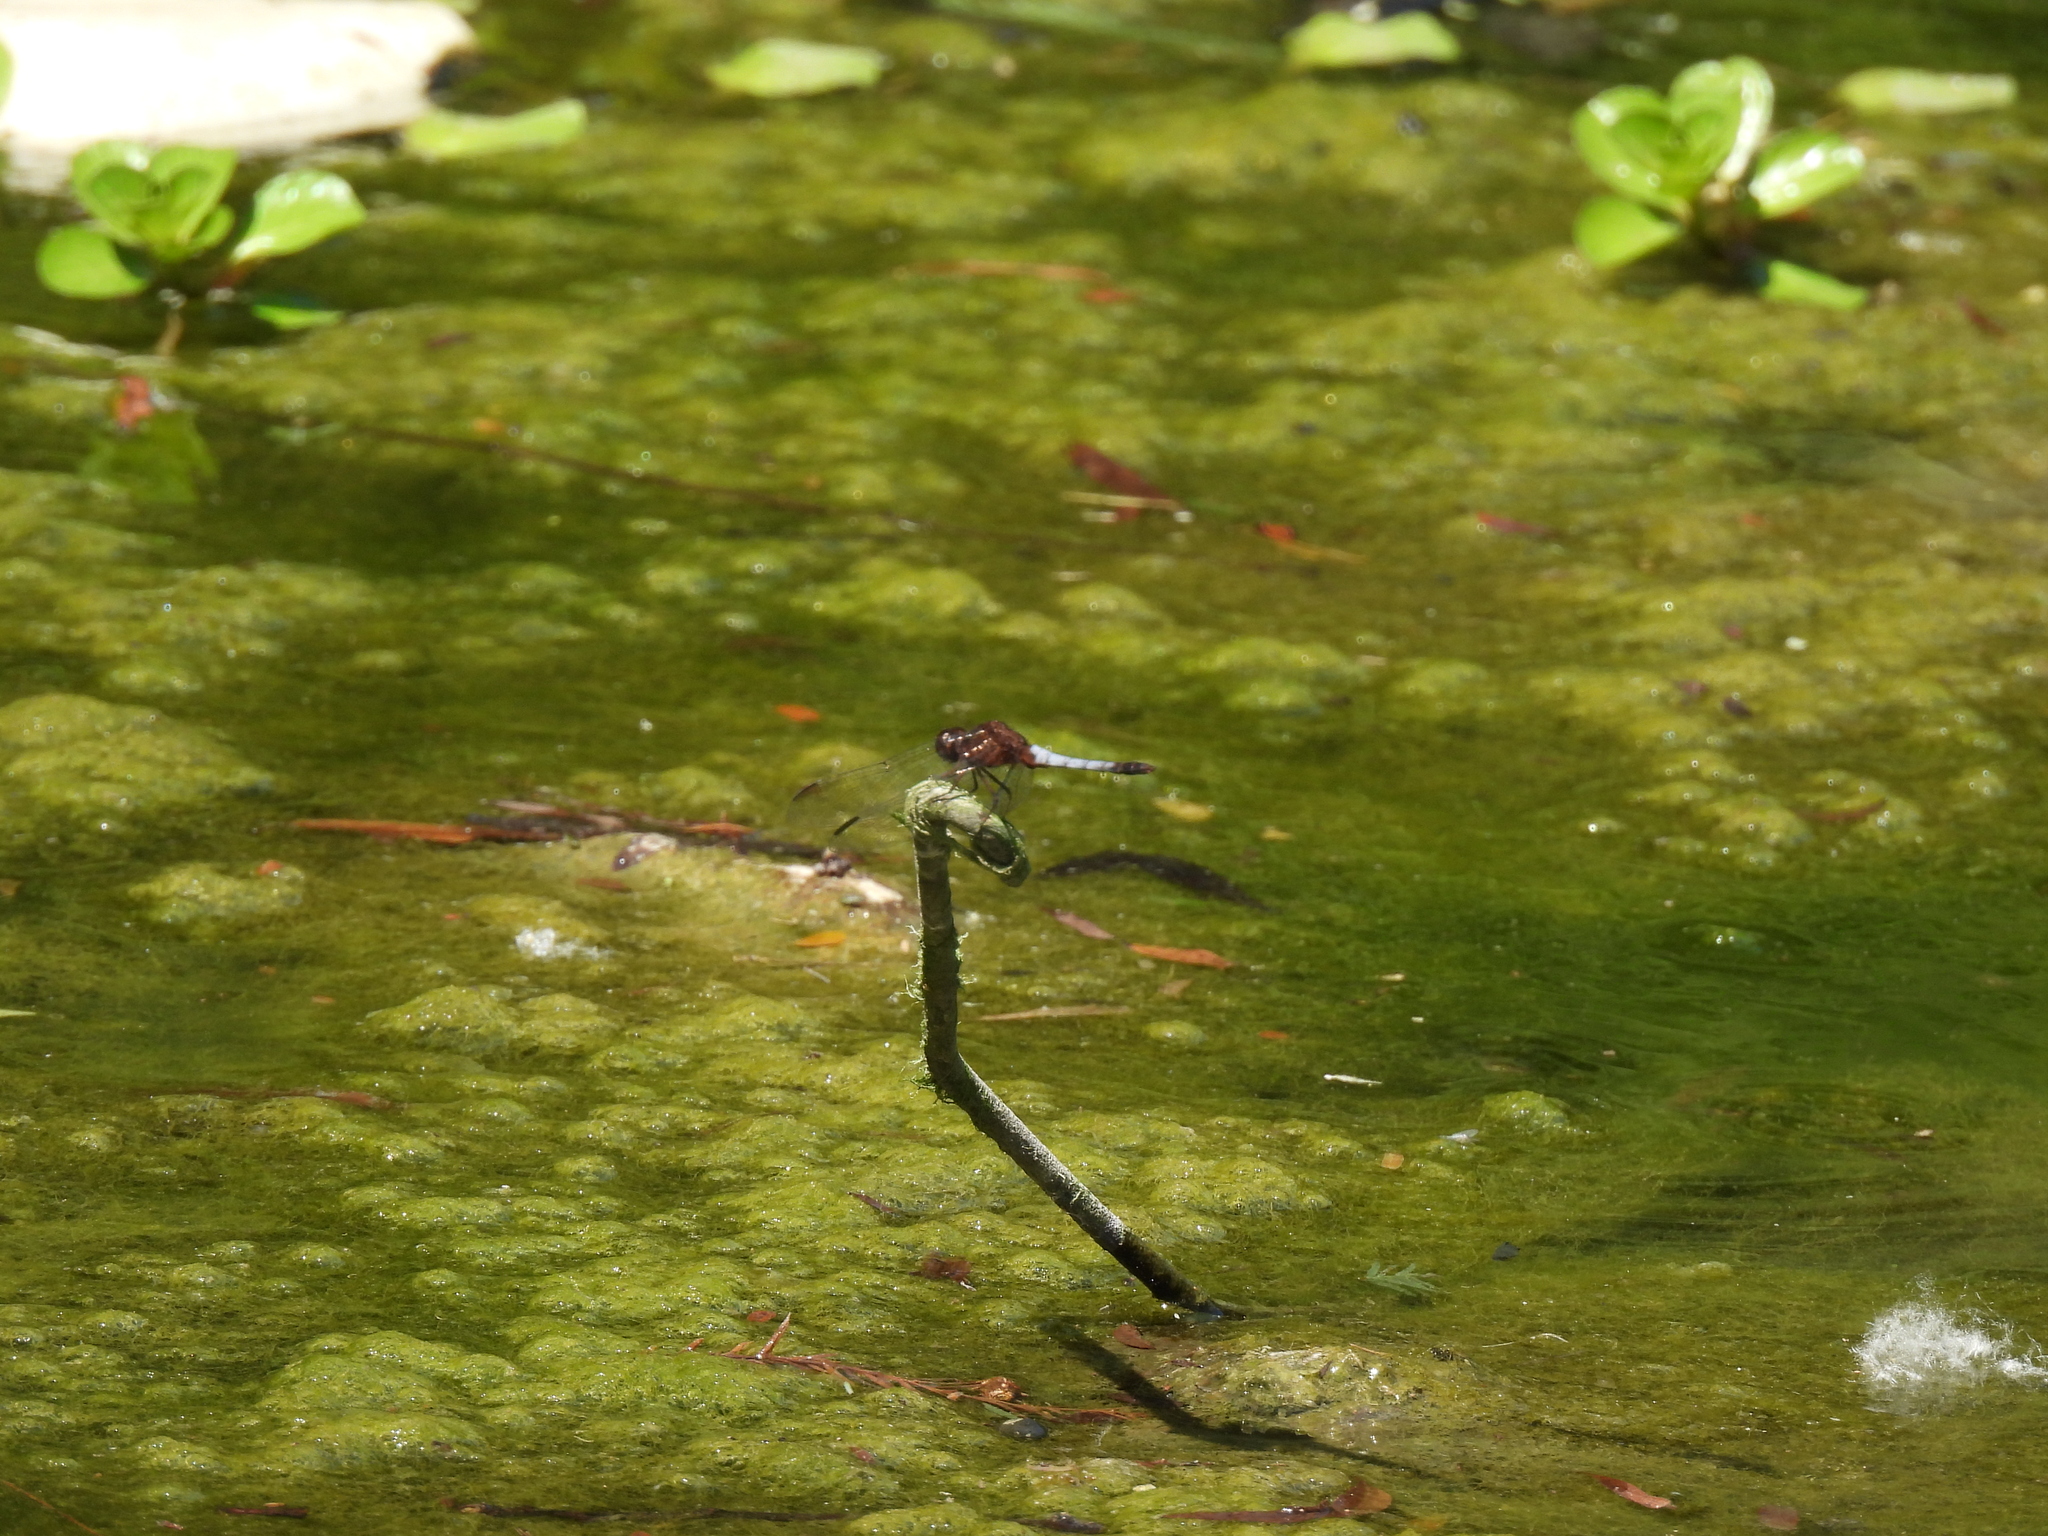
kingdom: Animalia
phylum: Arthropoda
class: Insecta
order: Odonata
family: Libellulidae
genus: Erythrodiplax
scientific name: Erythrodiplax basifusca
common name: Plateau dragonlet
